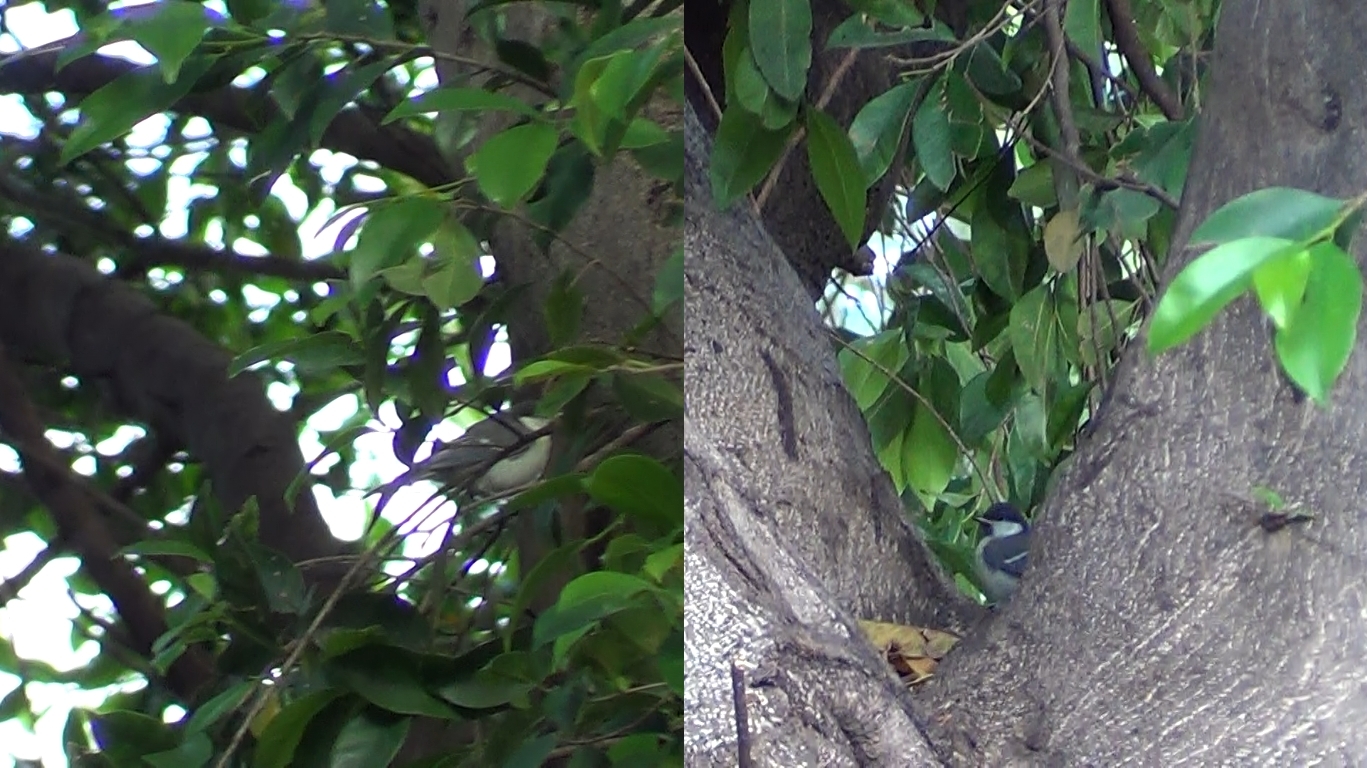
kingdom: Animalia
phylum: Chordata
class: Aves
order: Passeriformes
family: Paridae
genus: Periparus
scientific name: Periparus ater
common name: Coal tit
